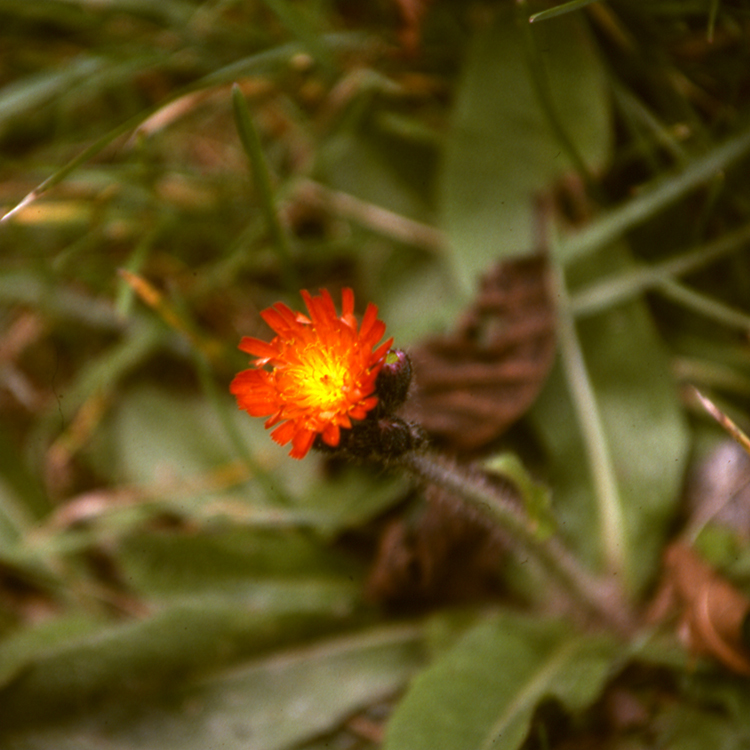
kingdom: Plantae
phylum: Tracheophyta
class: Magnoliopsida
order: Asterales
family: Asteraceae
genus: Pilosella
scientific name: Pilosella aurantiaca
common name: Fox-and-cubs
